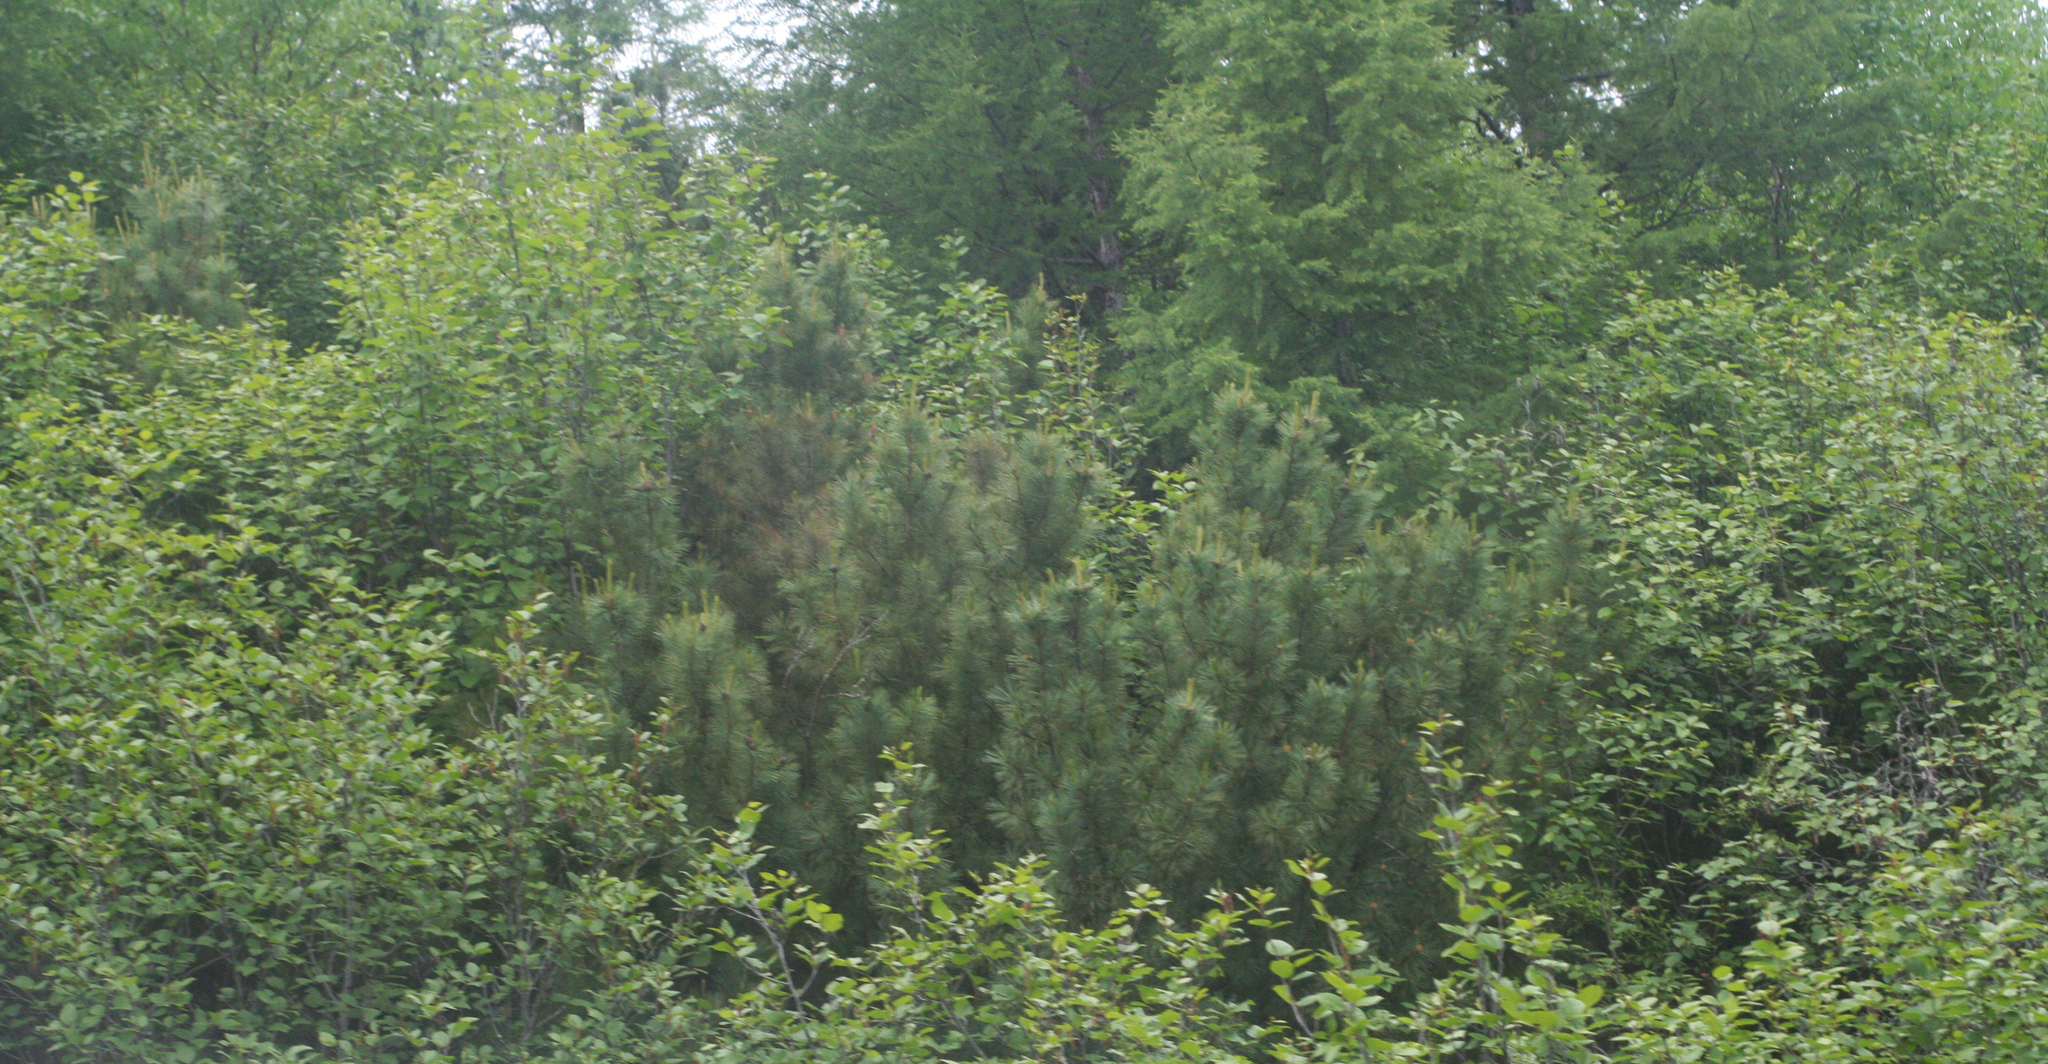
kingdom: Plantae
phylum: Tracheophyta
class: Pinopsida
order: Pinales
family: Pinaceae
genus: Pinus
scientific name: Pinus pumila
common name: Dwarf siberian pine
